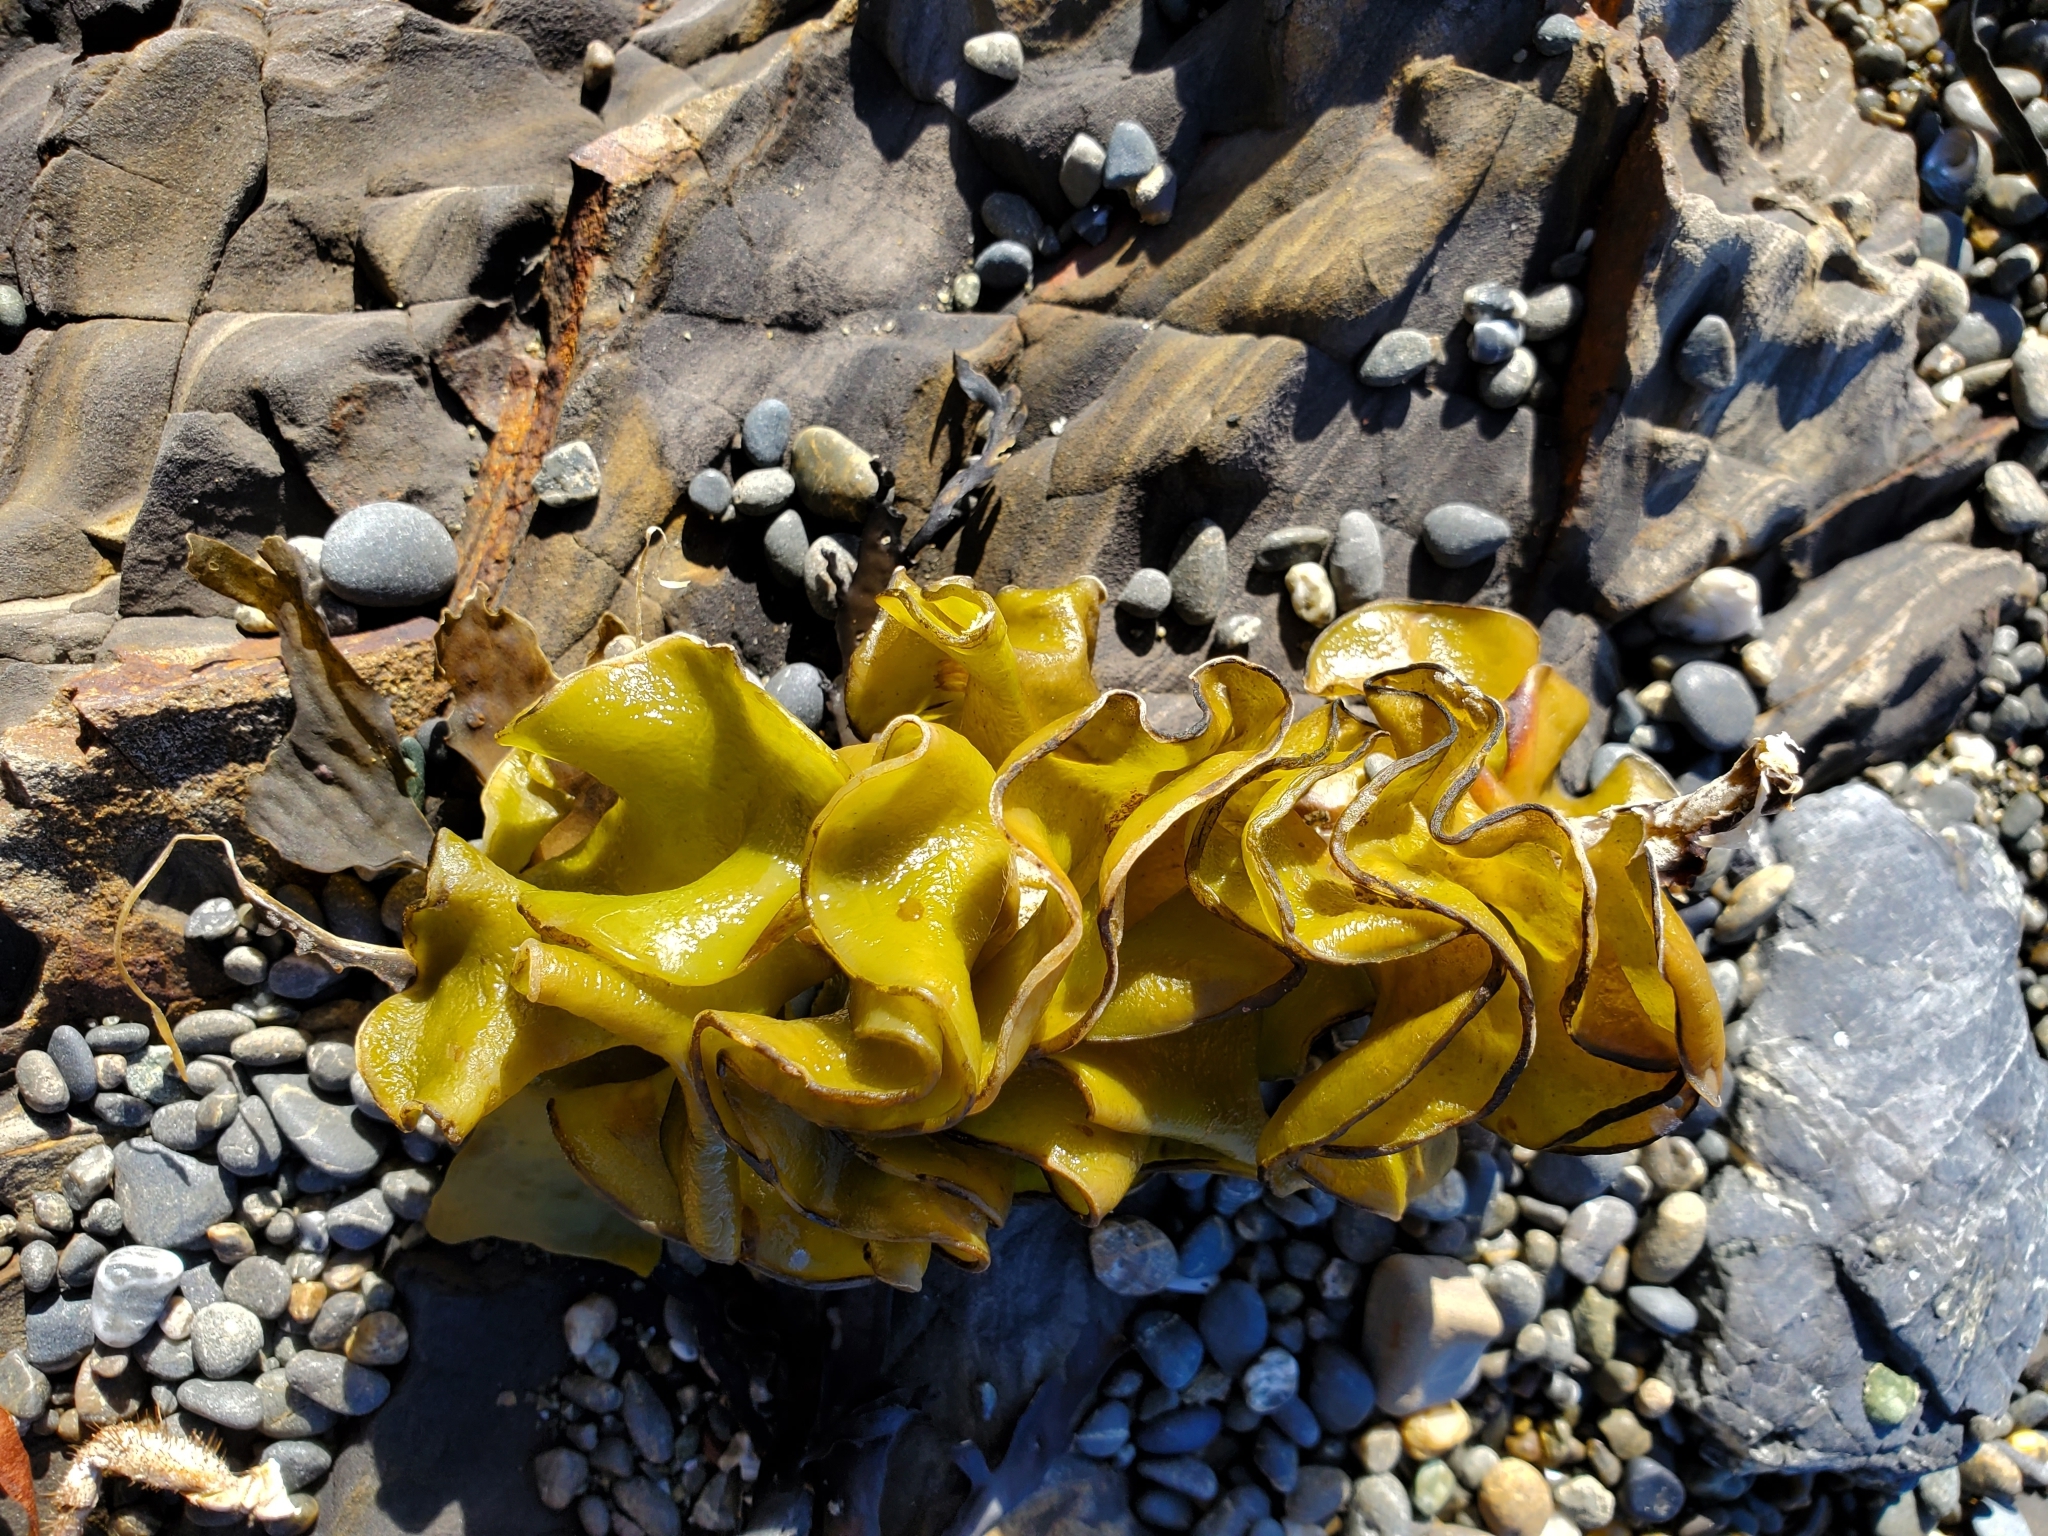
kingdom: Chromista
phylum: Ochrophyta
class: Phaeophyceae
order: Laminariales
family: Alariaceae
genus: Undaria
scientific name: Undaria pinnatifida
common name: Asian kelp
